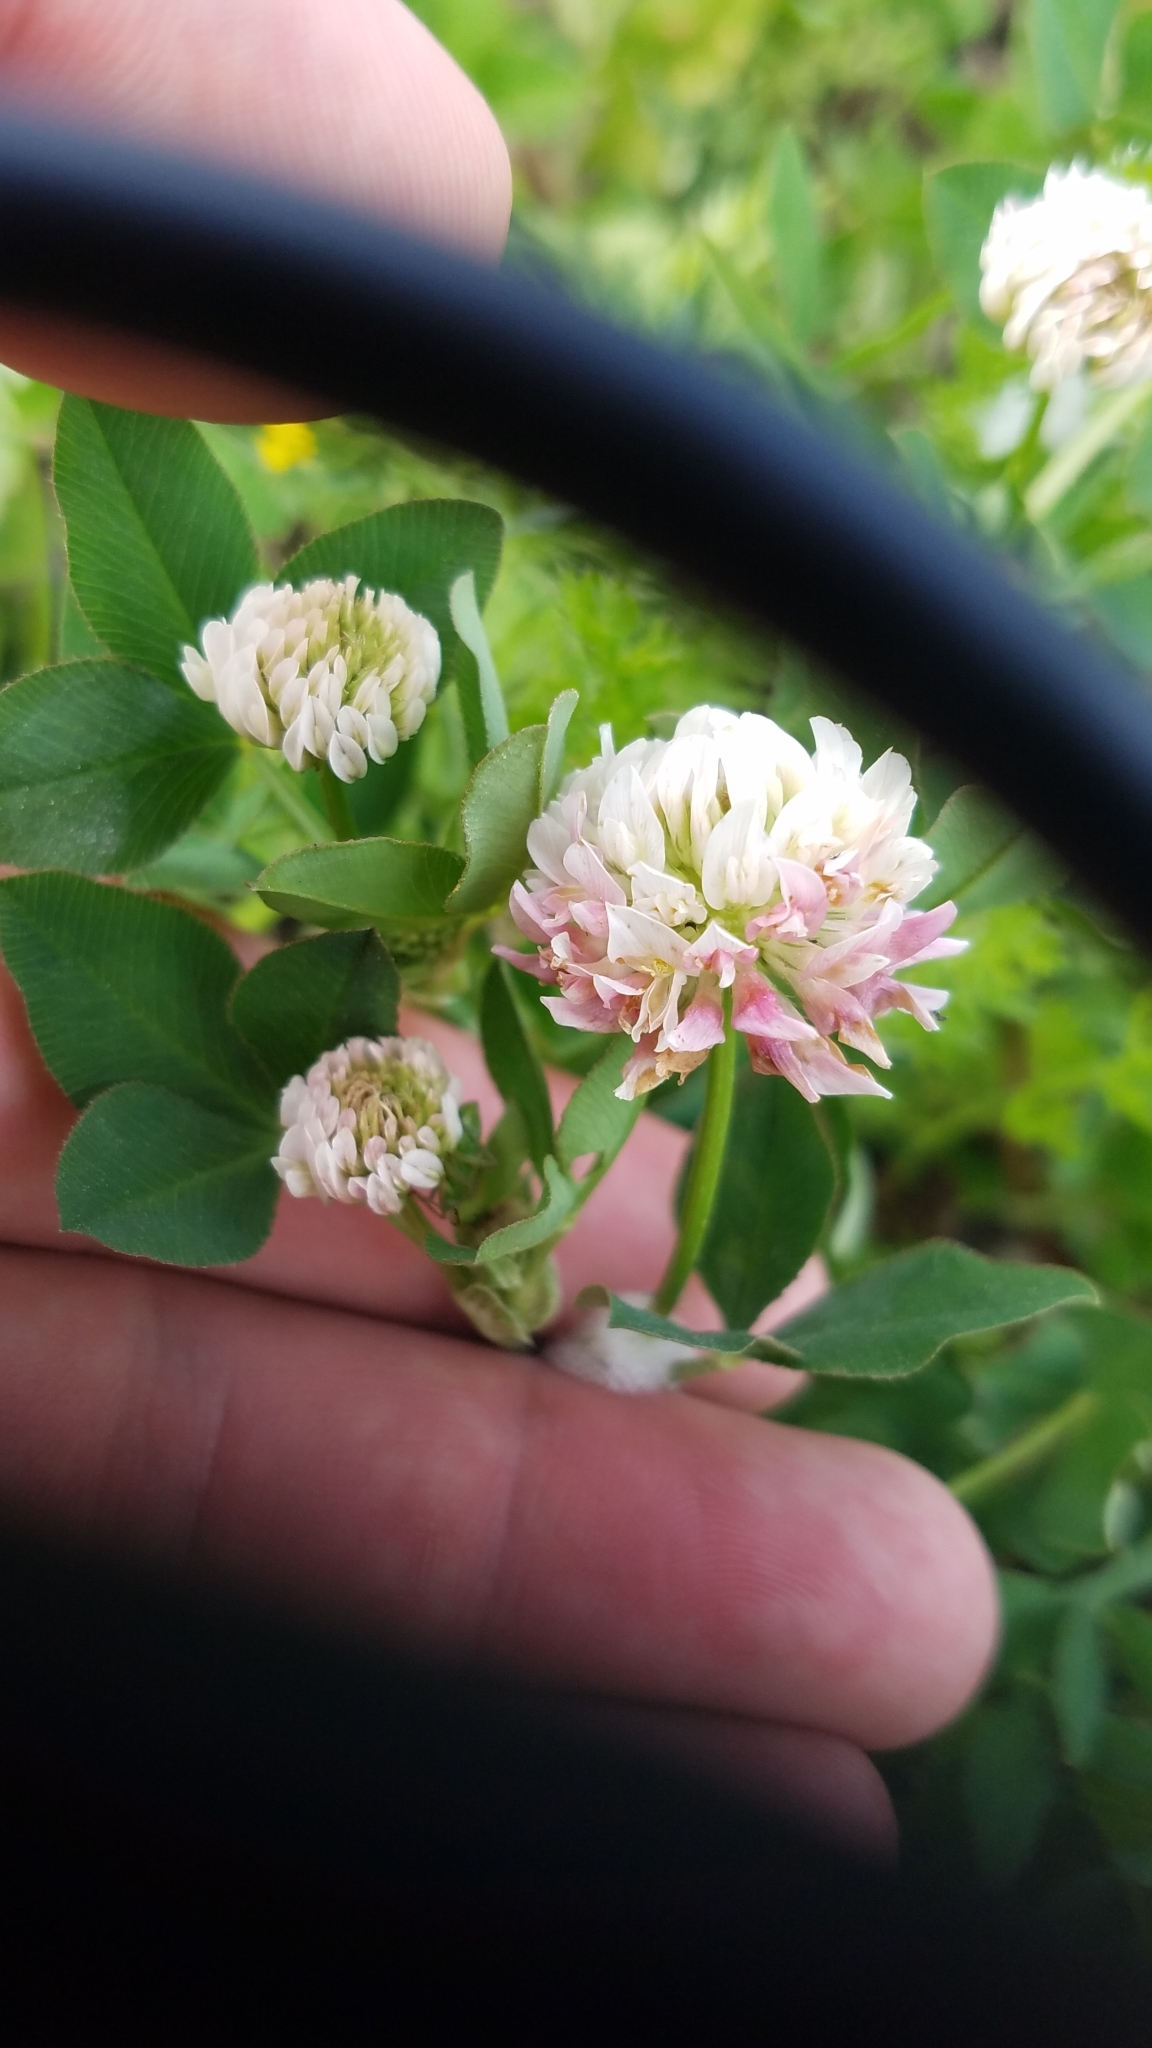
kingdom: Plantae
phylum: Tracheophyta
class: Magnoliopsida
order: Fabales
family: Fabaceae
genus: Trifolium
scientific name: Trifolium hybridum
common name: Alsike clover
